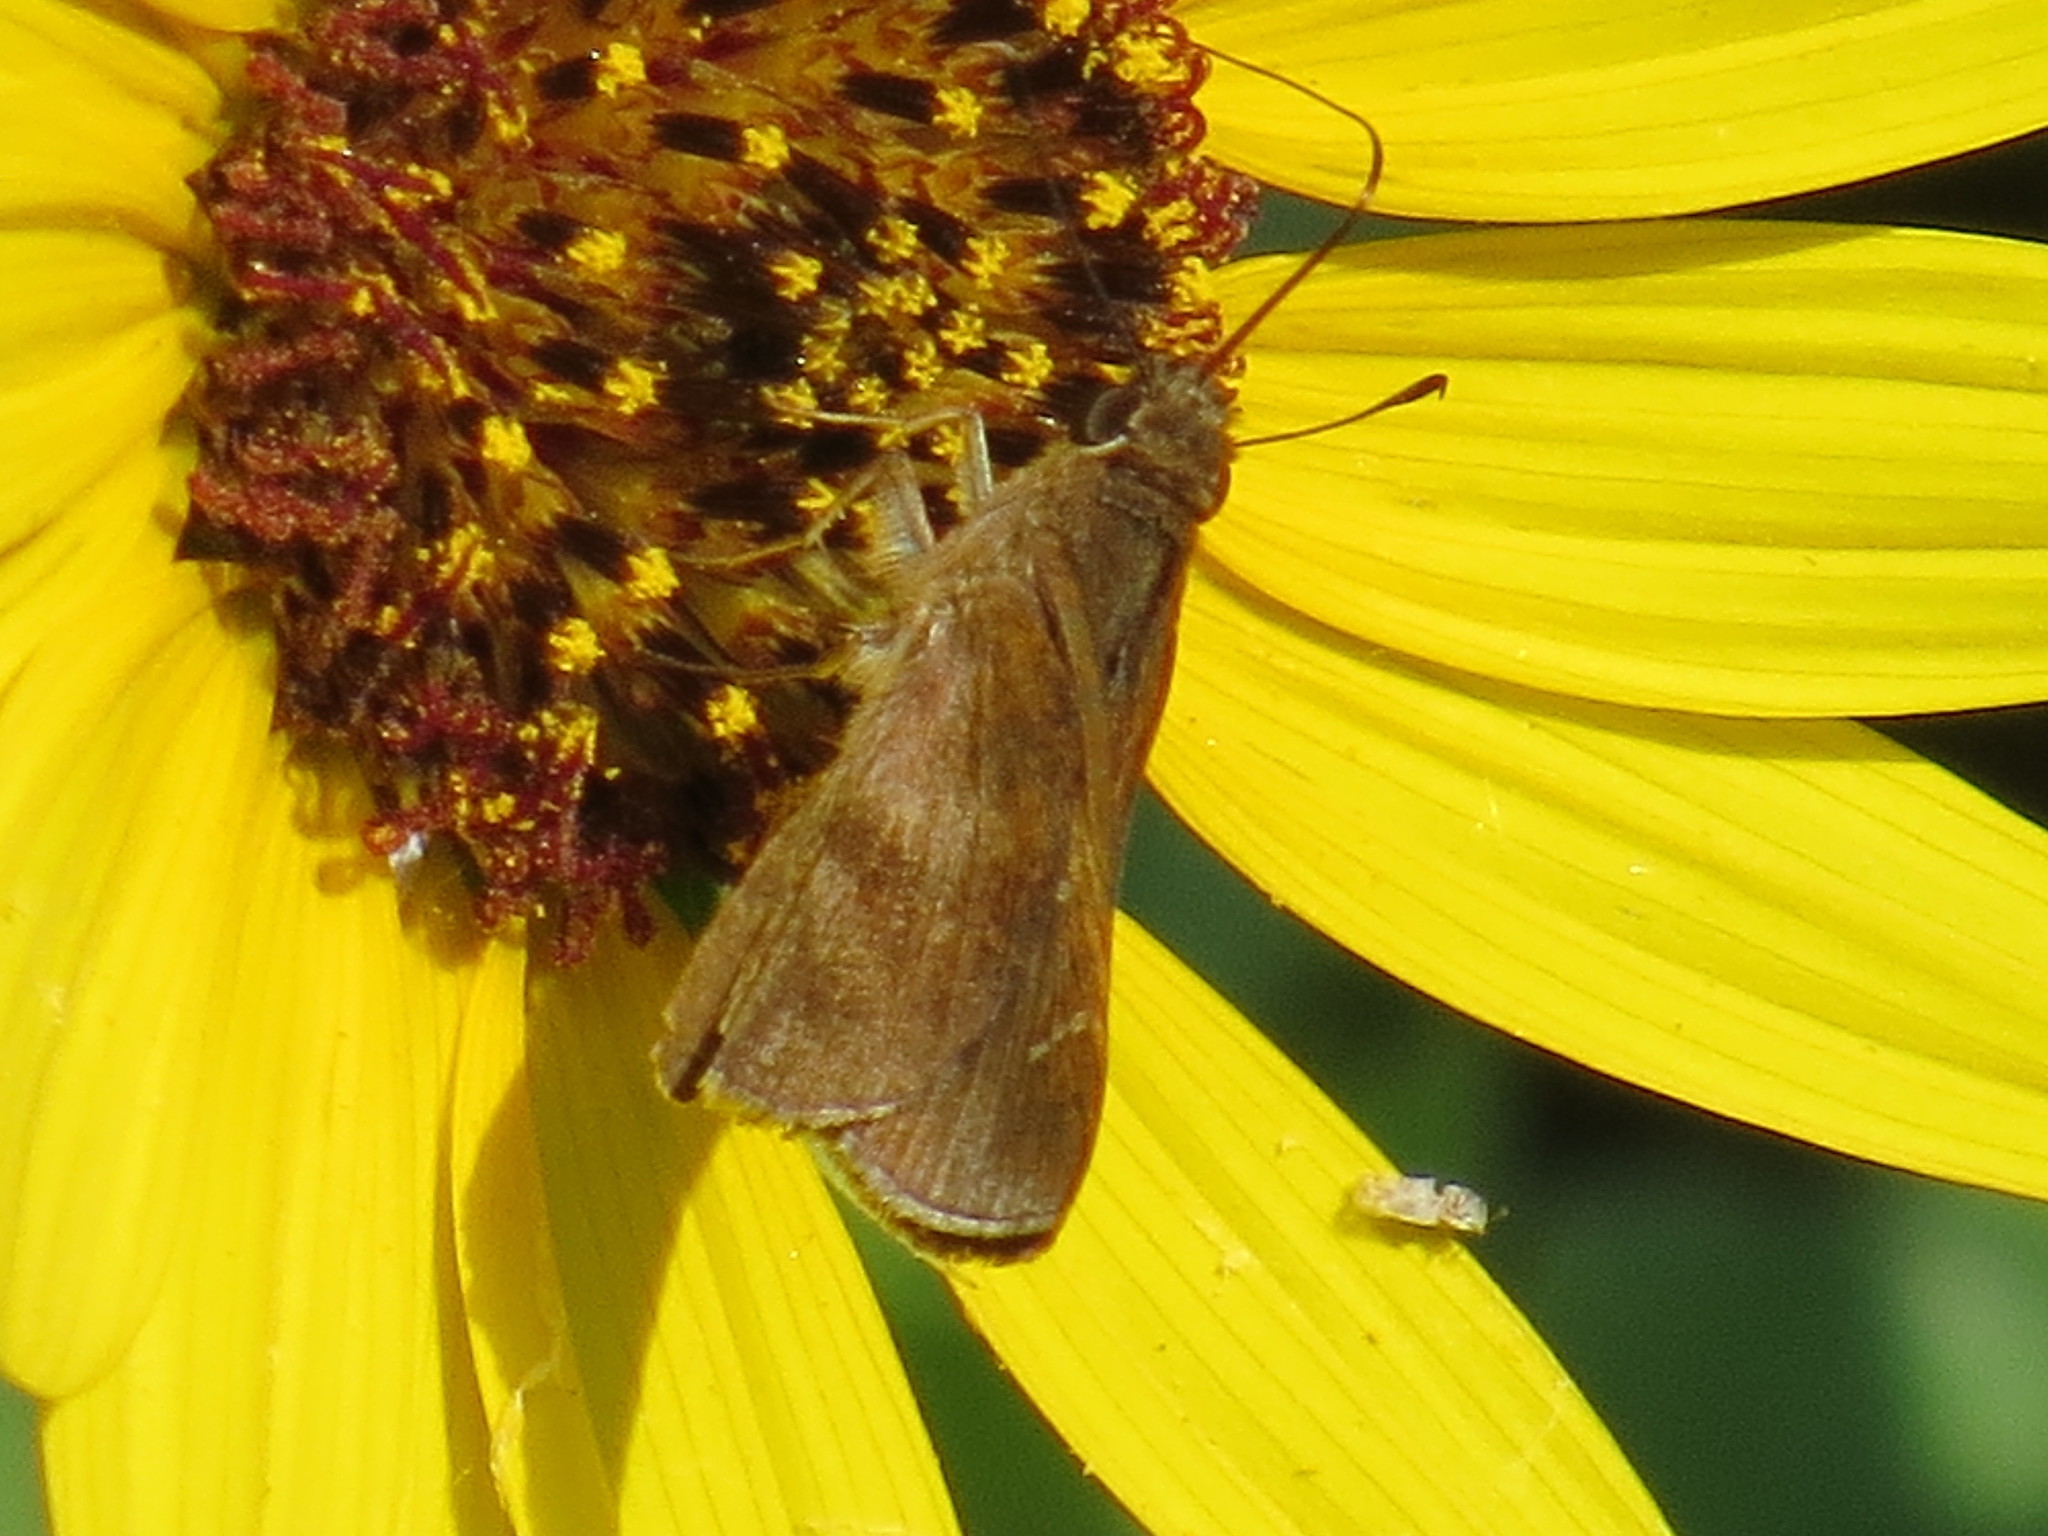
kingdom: Animalia
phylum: Arthropoda
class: Insecta
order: Lepidoptera
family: Hesperiidae
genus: Lerema
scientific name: Lerema accius
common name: Clouded skipper
